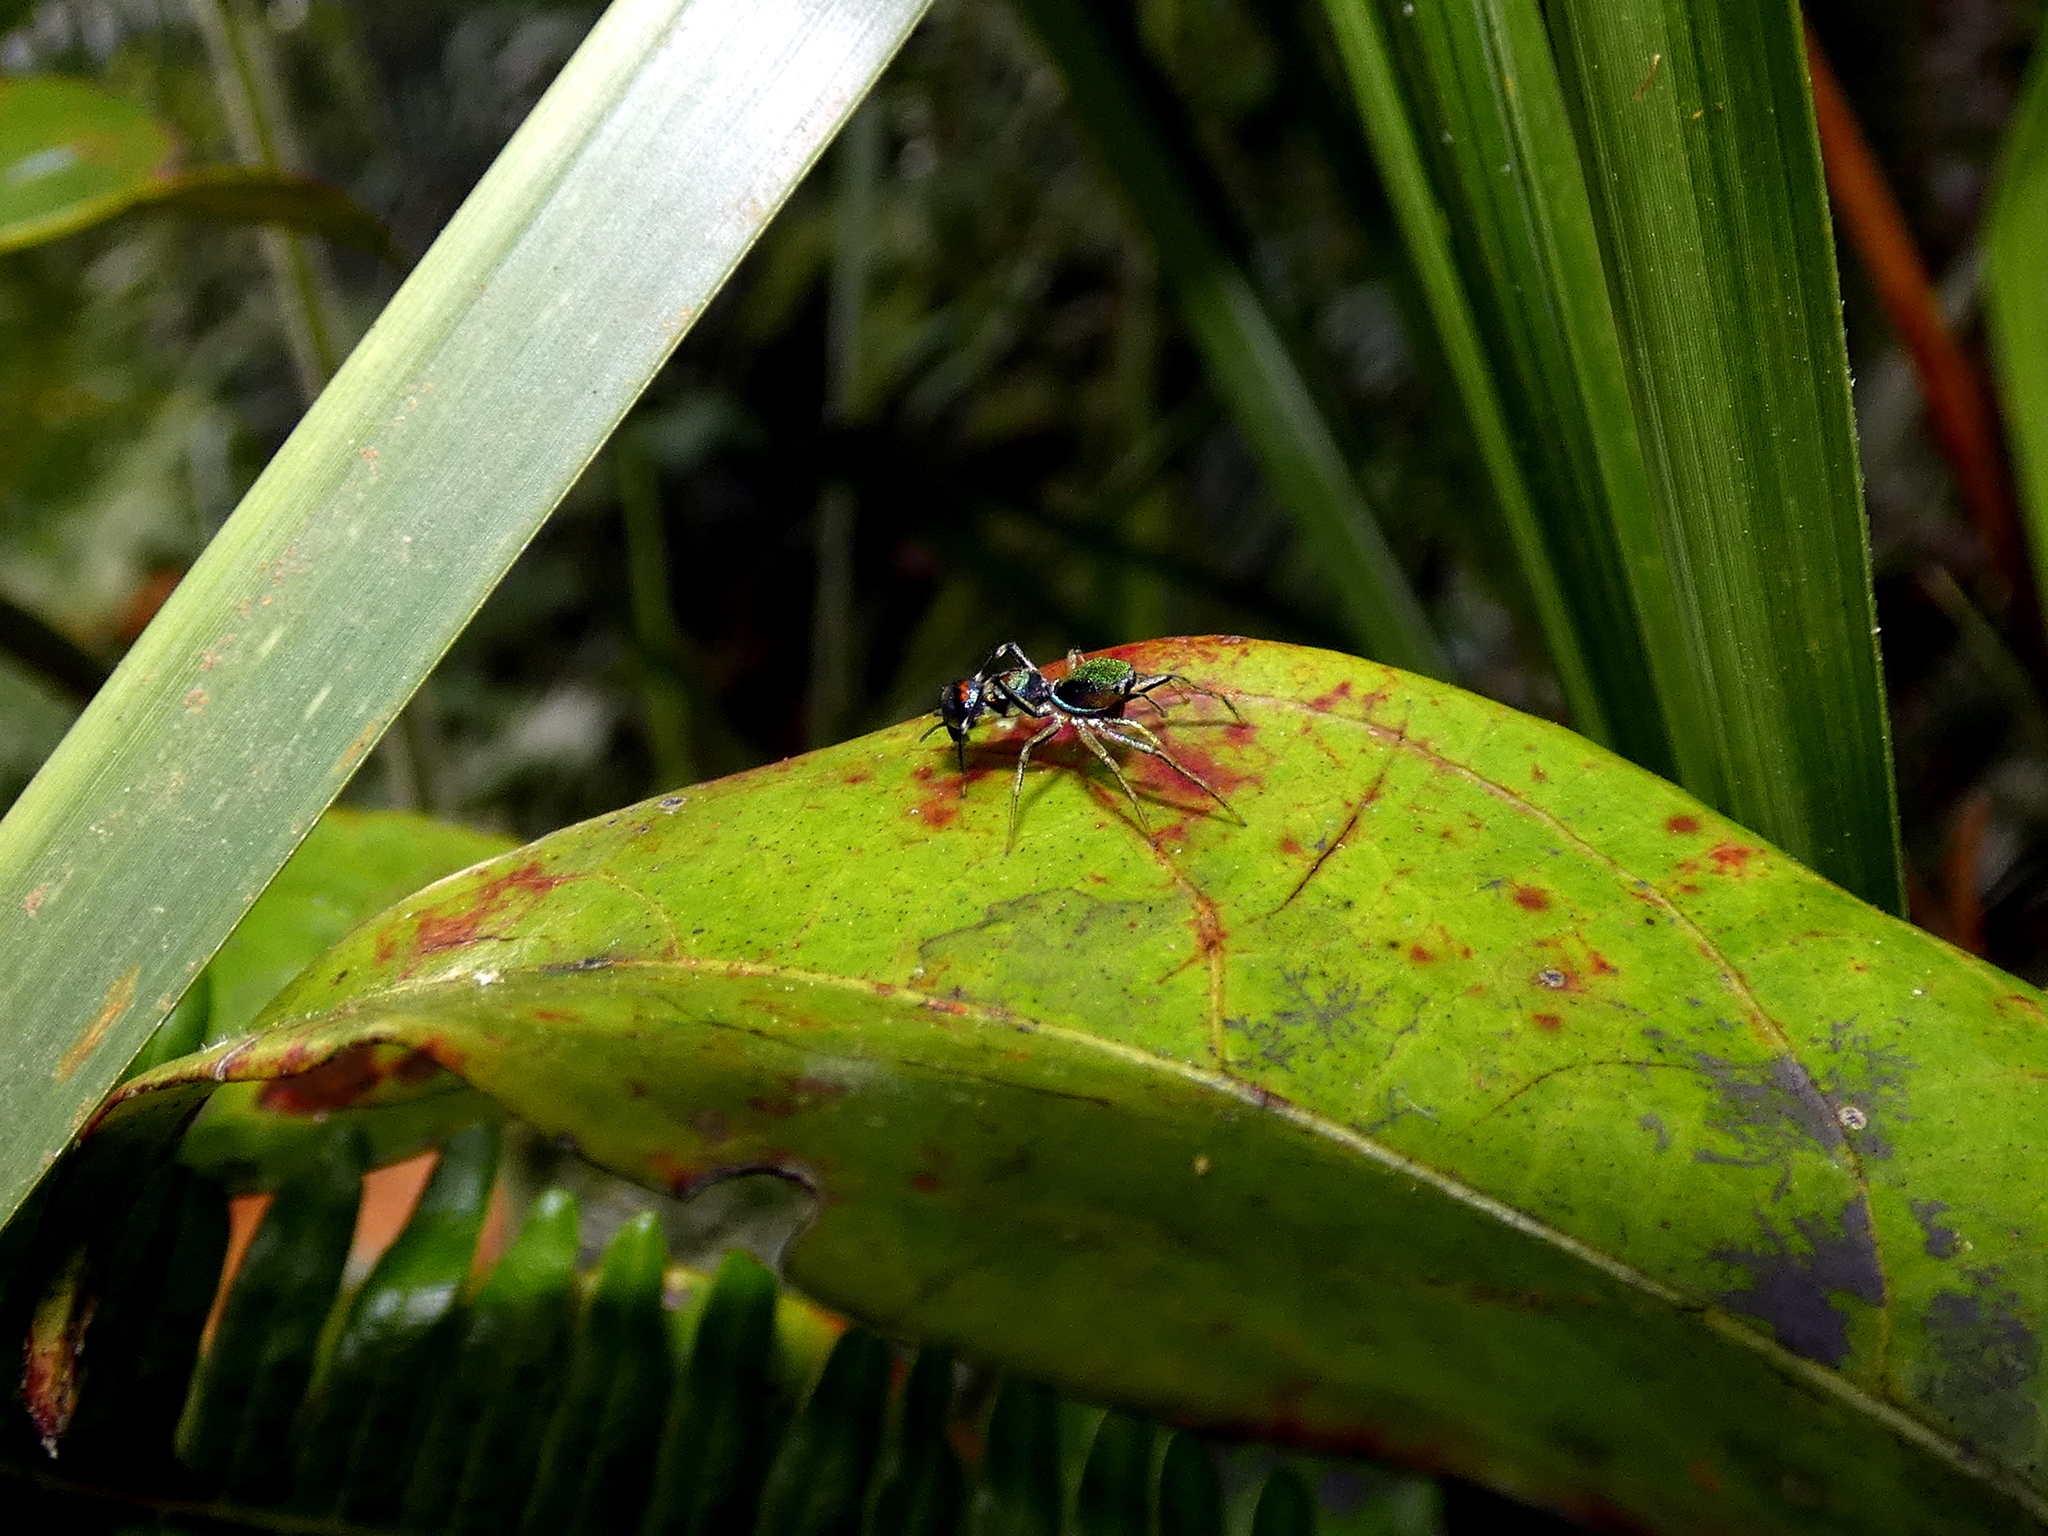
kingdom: Animalia
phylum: Arthropoda
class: Arachnida
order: Araneae
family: Salticidae
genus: Orsima
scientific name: Orsima ichneumon
